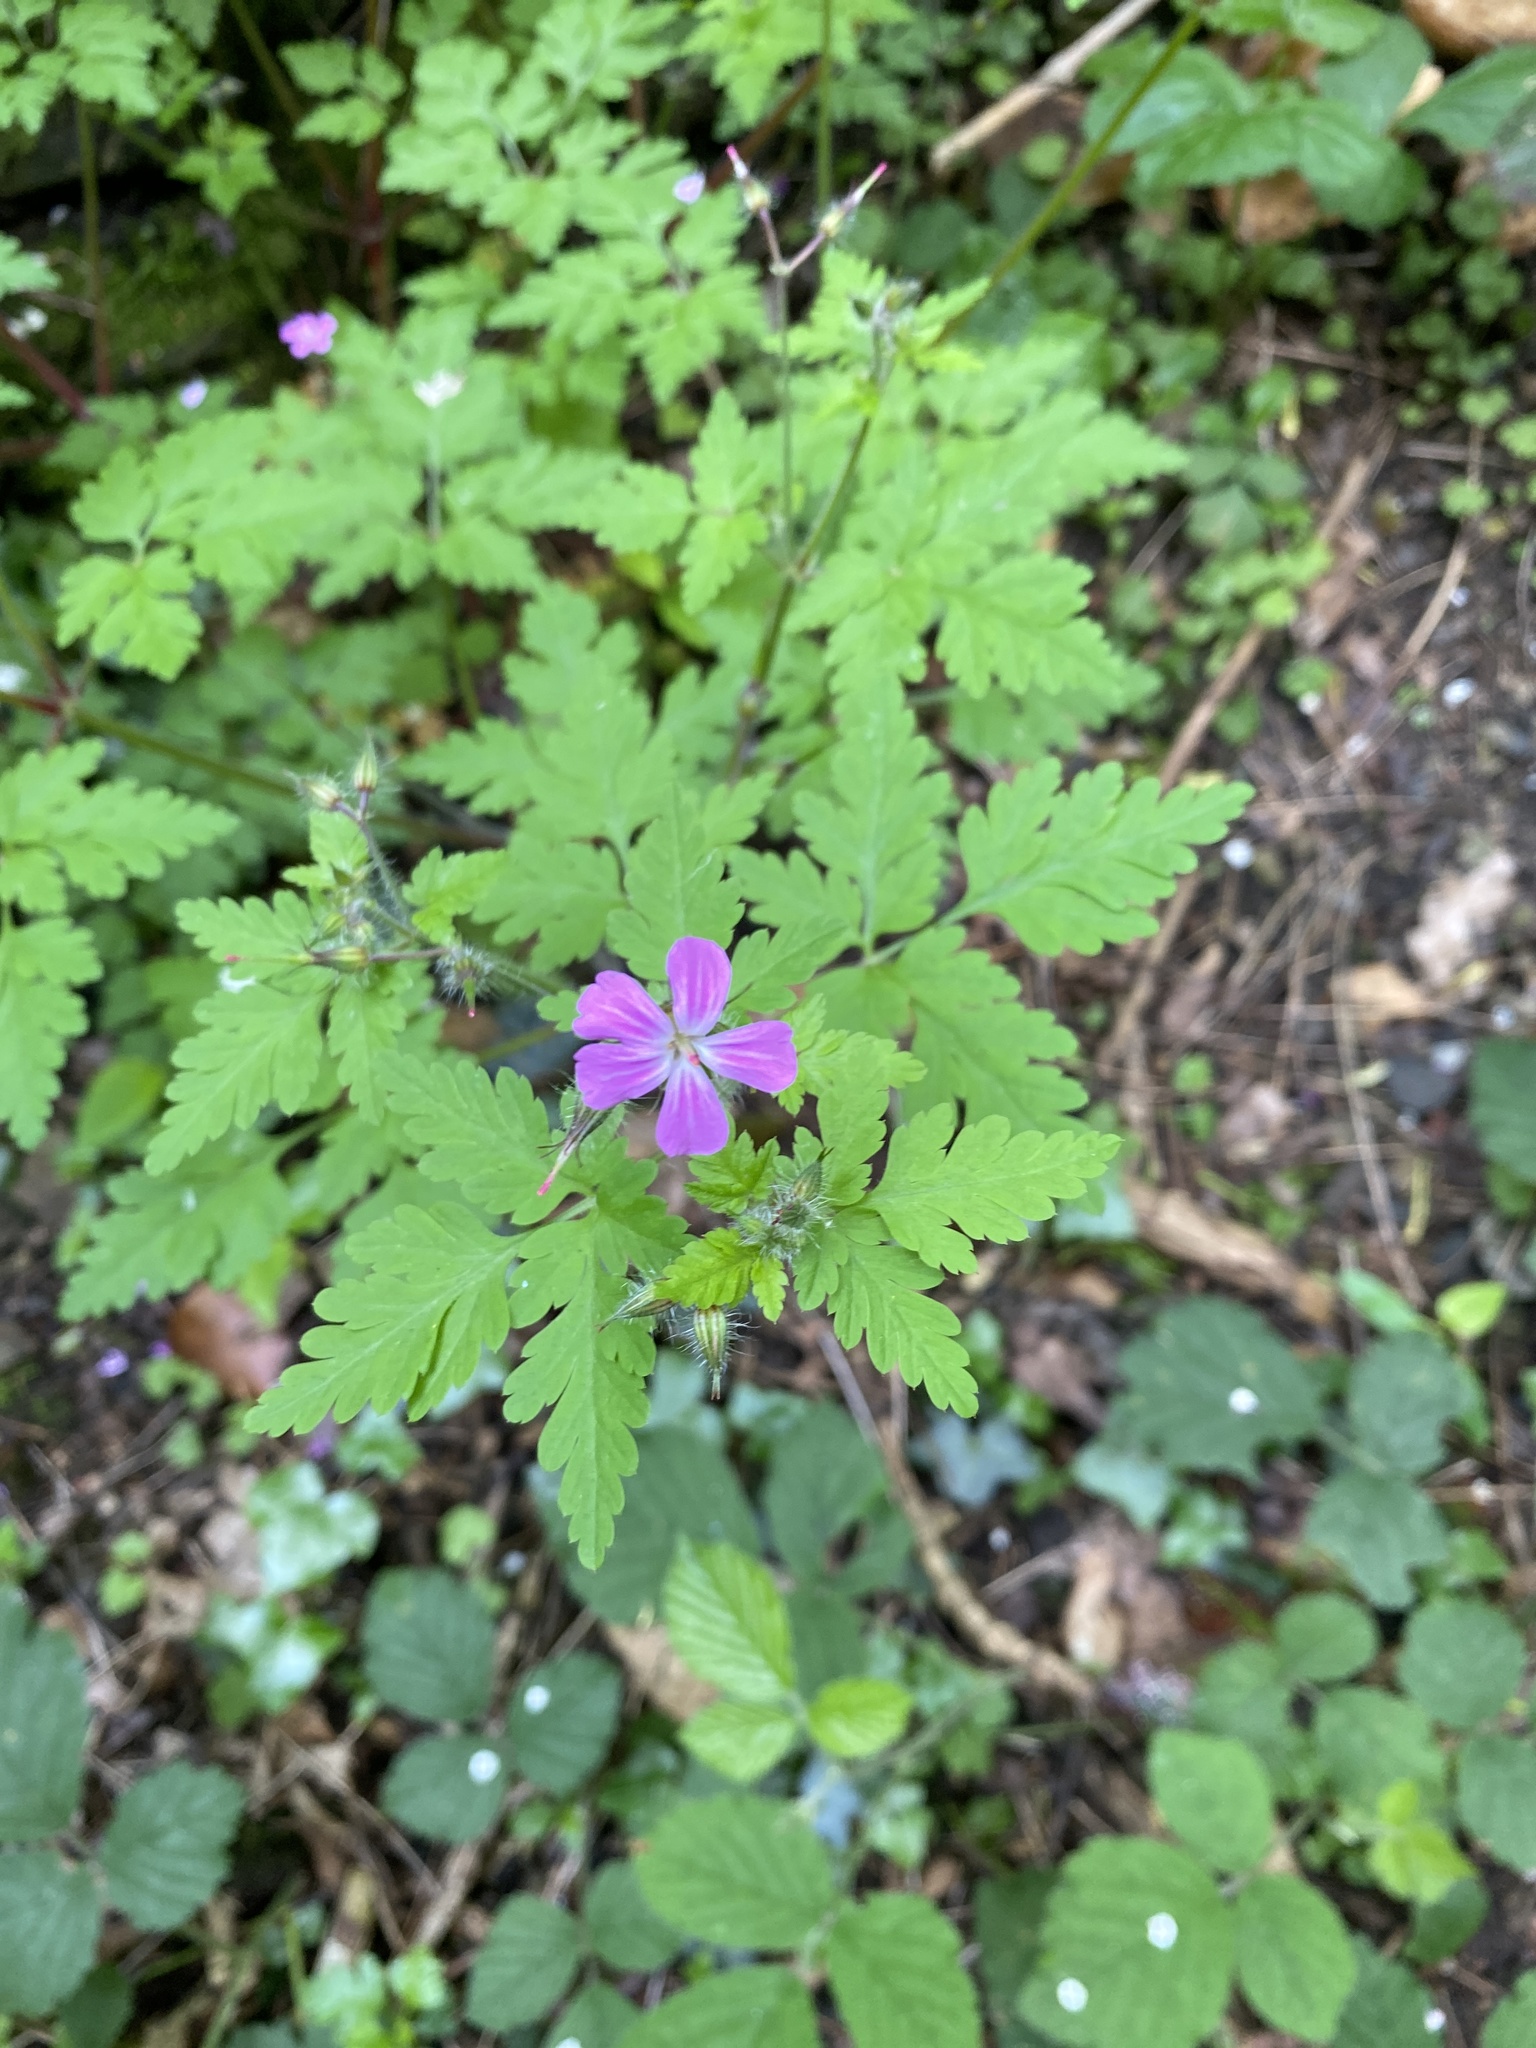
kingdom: Plantae
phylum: Tracheophyta
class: Magnoliopsida
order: Geraniales
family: Geraniaceae
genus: Geranium
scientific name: Geranium robertianum
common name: Herb-robert
